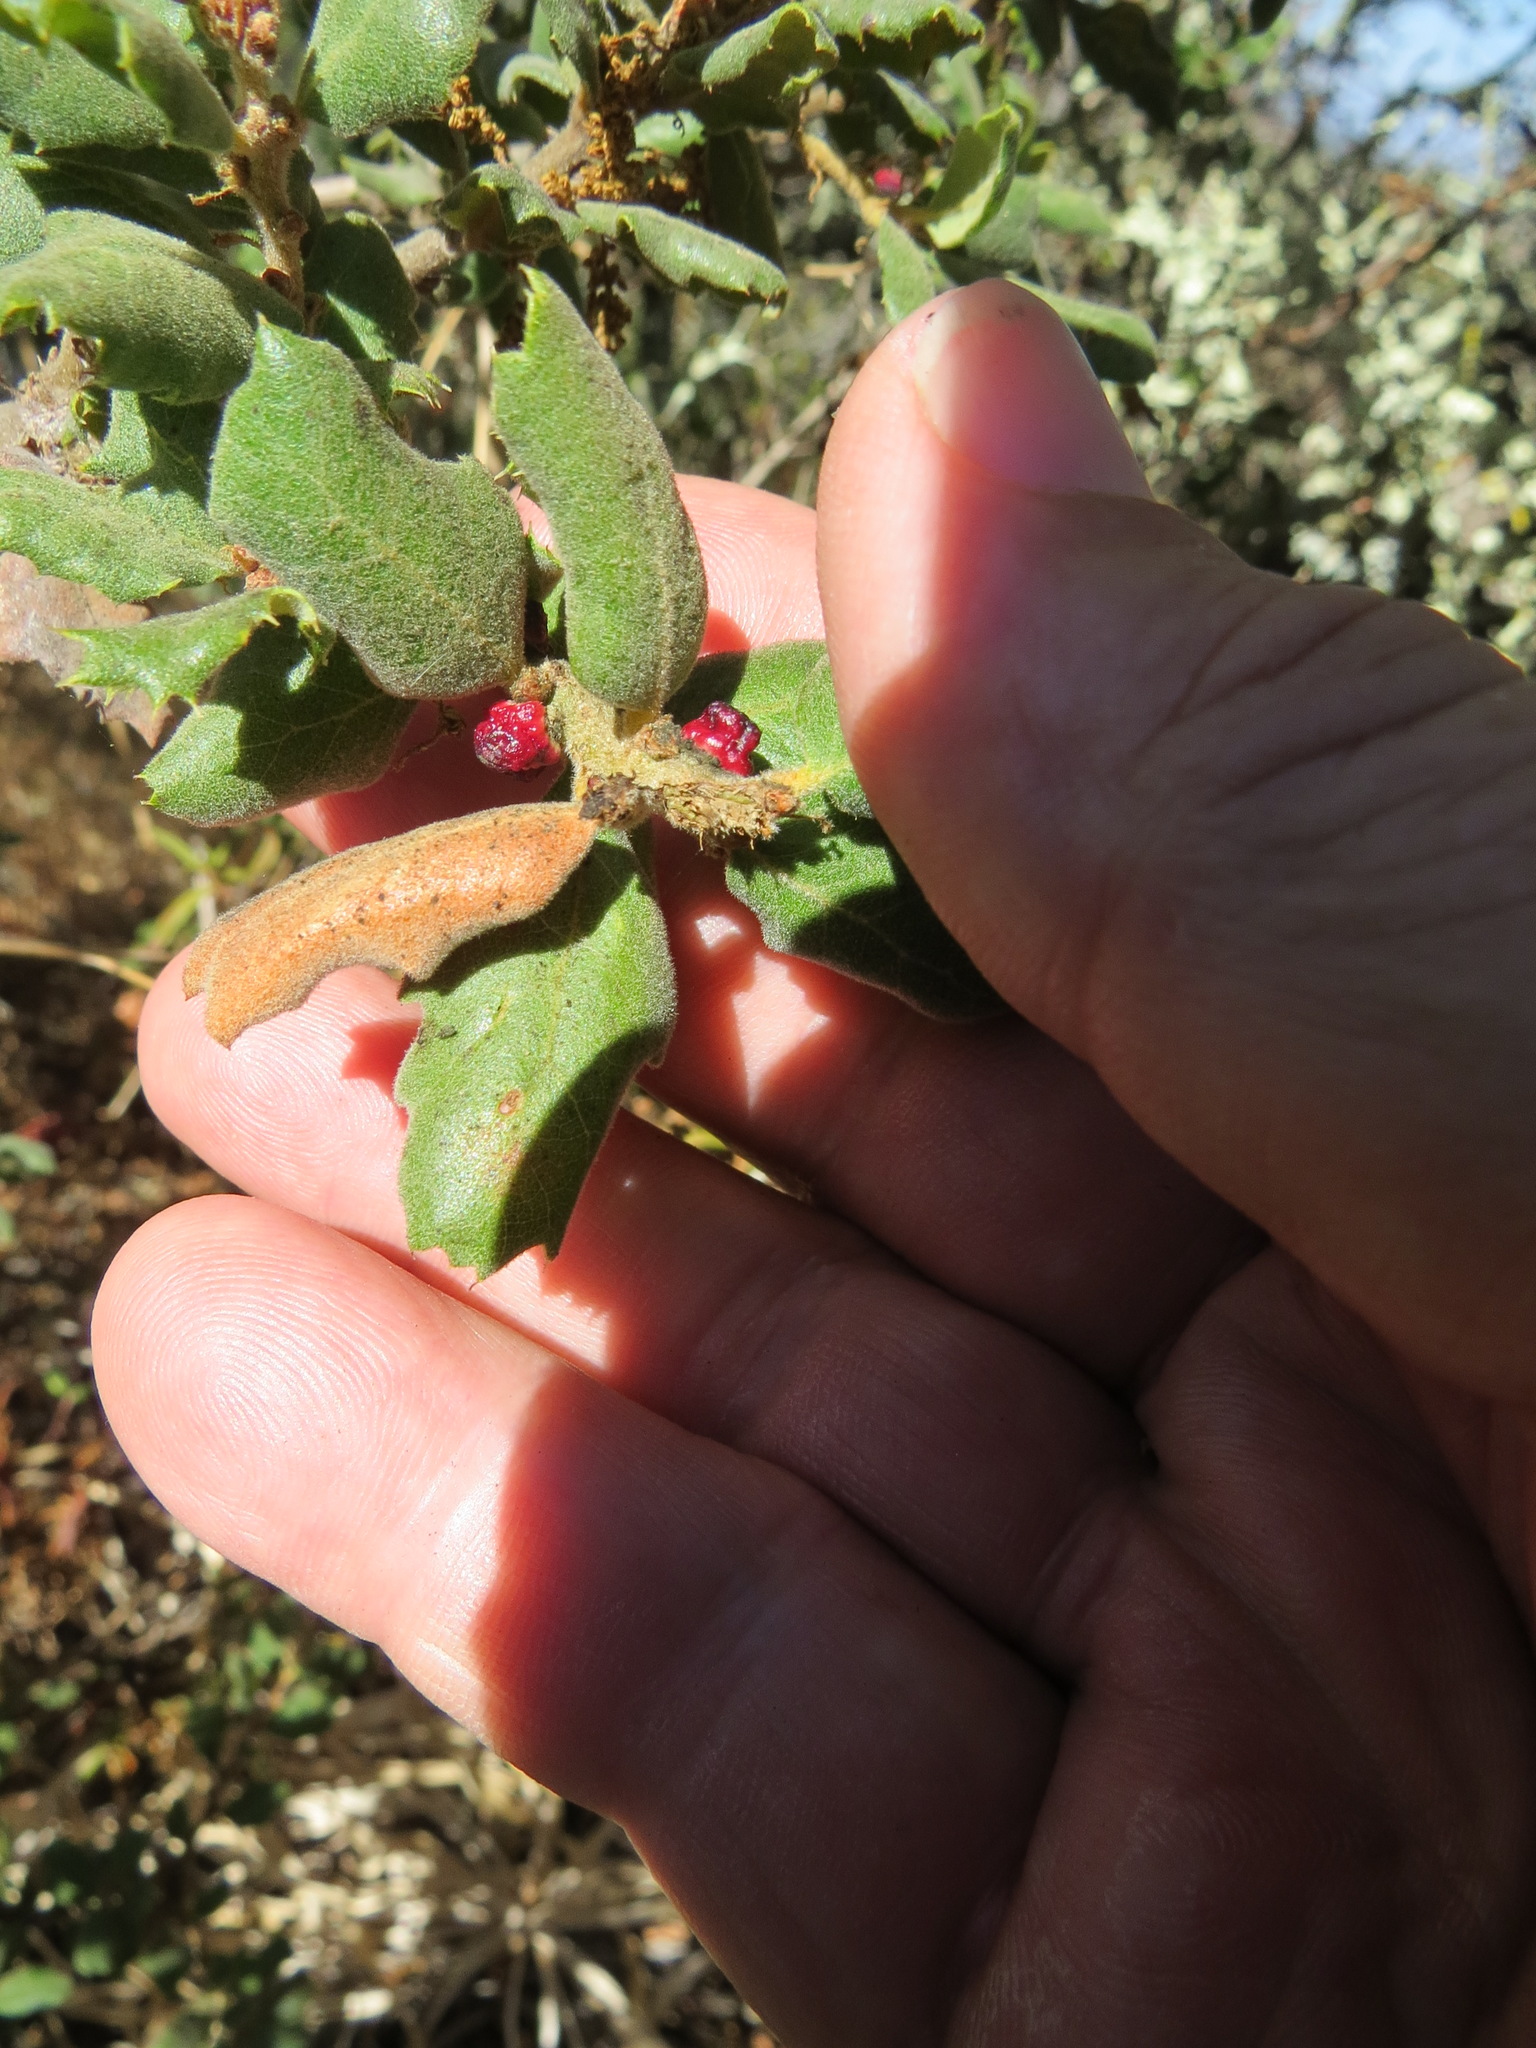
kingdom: Animalia
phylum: Arthropoda
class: Insecta
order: Hymenoptera
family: Cynipidae
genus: Disholcaspis
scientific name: Disholcaspis prehensa
